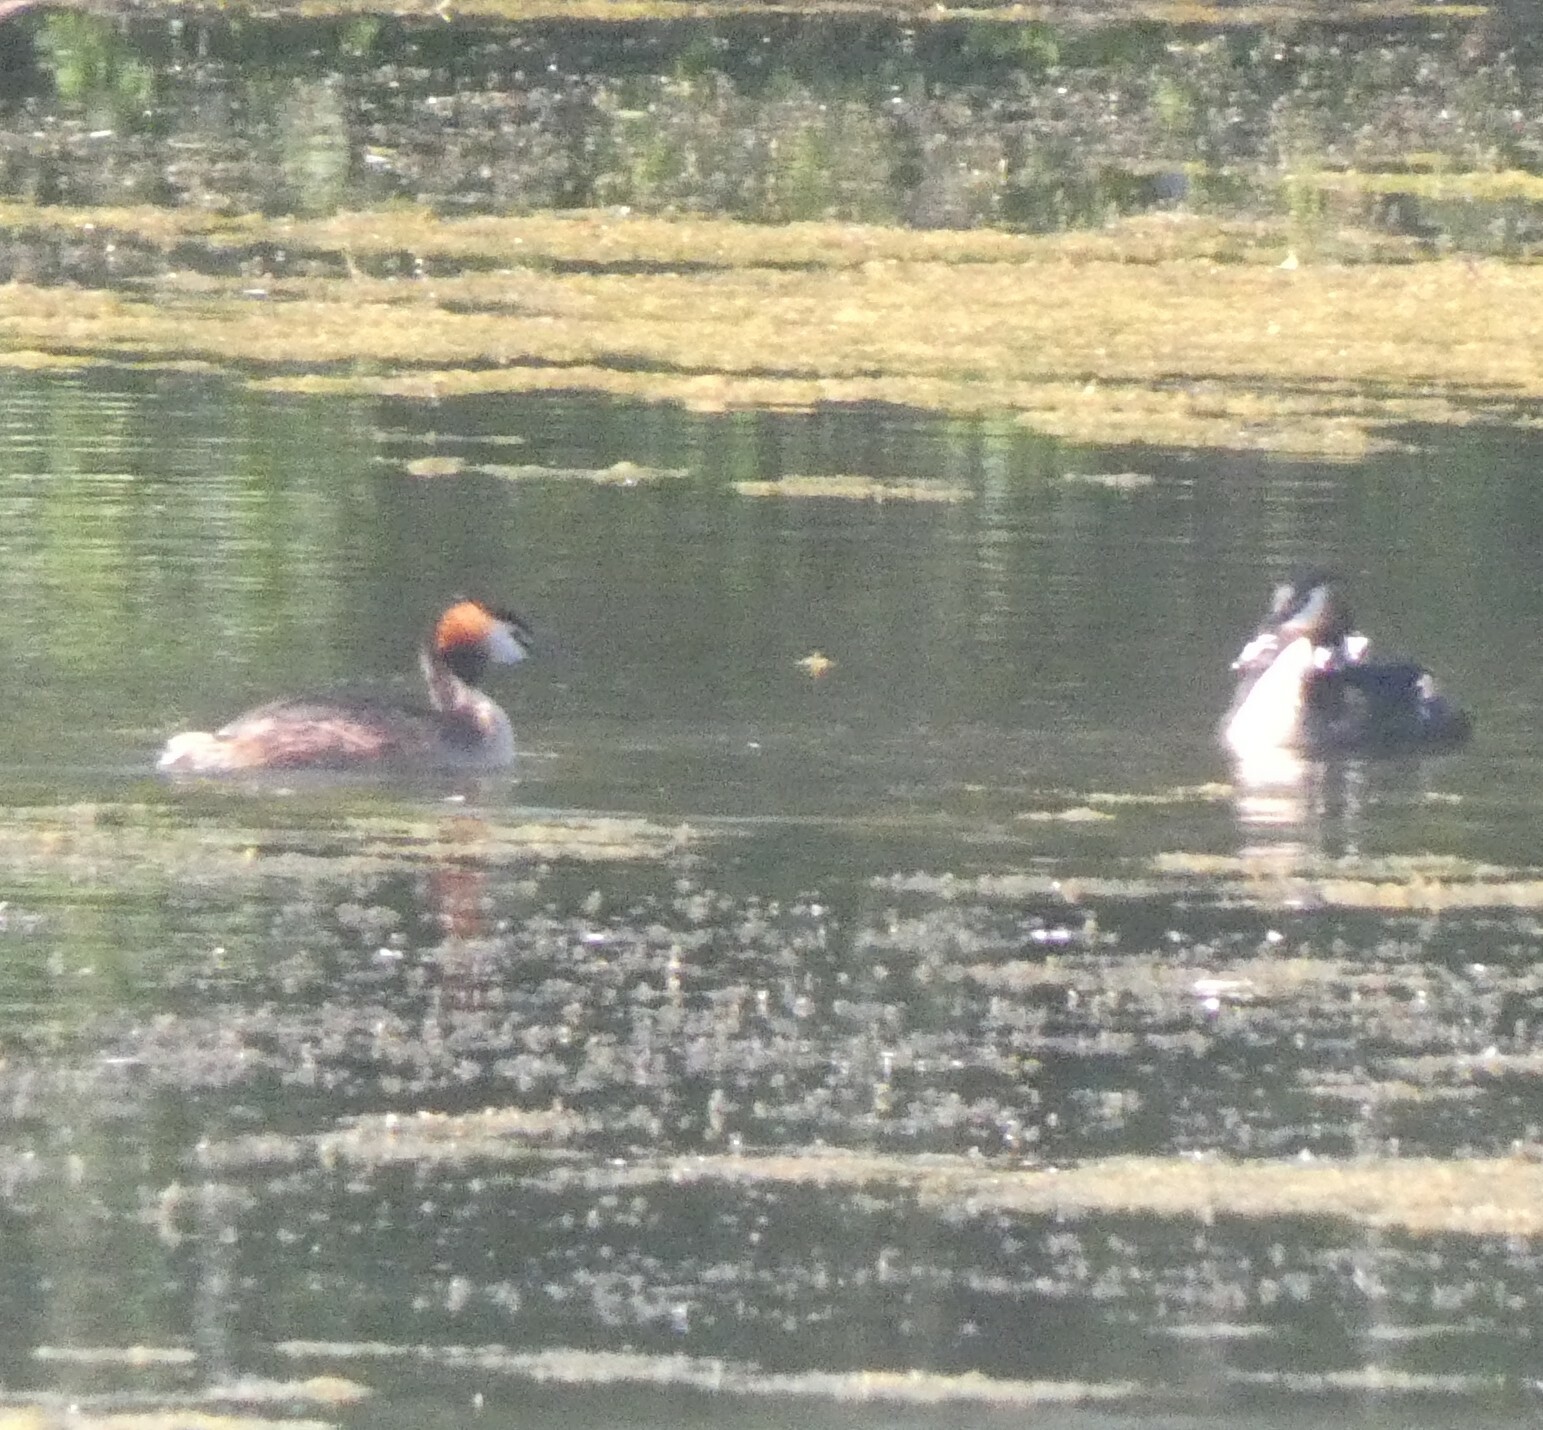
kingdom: Animalia
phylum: Chordata
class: Aves
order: Podicipediformes
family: Podicipedidae
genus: Podiceps
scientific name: Podiceps cristatus
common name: Great crested grebe
